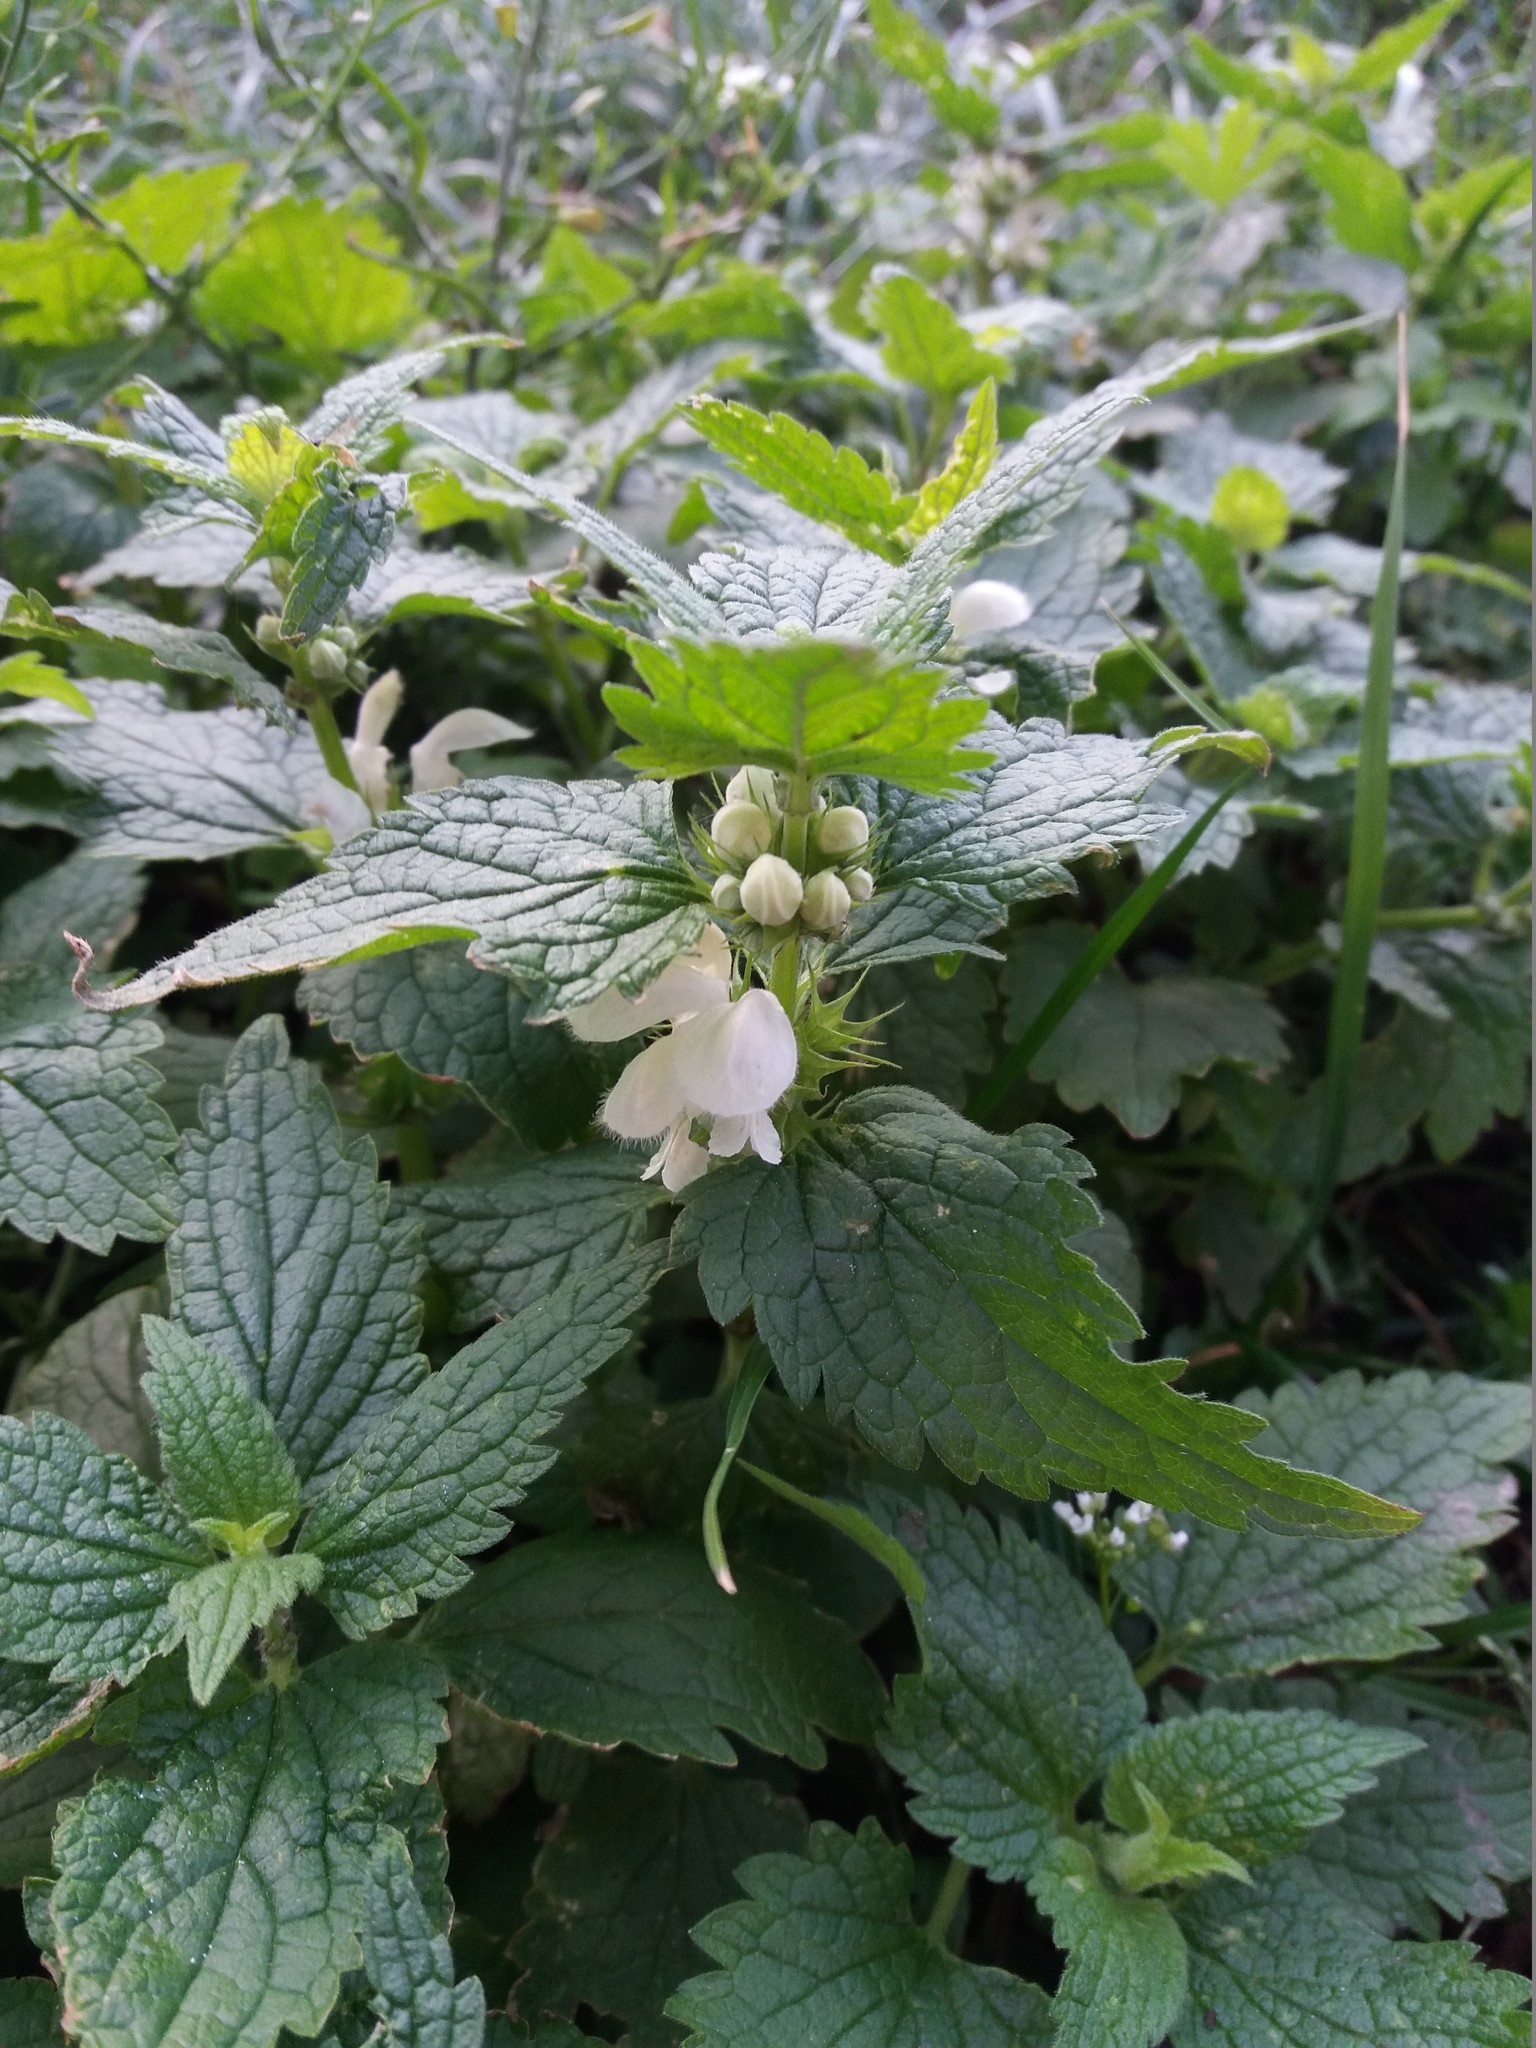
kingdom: Plantae
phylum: Tracheophyta
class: Magnoliopsida
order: Lamiales
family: Lamiaceae
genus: Lamium
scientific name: Lamium album
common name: White dead-nettle
